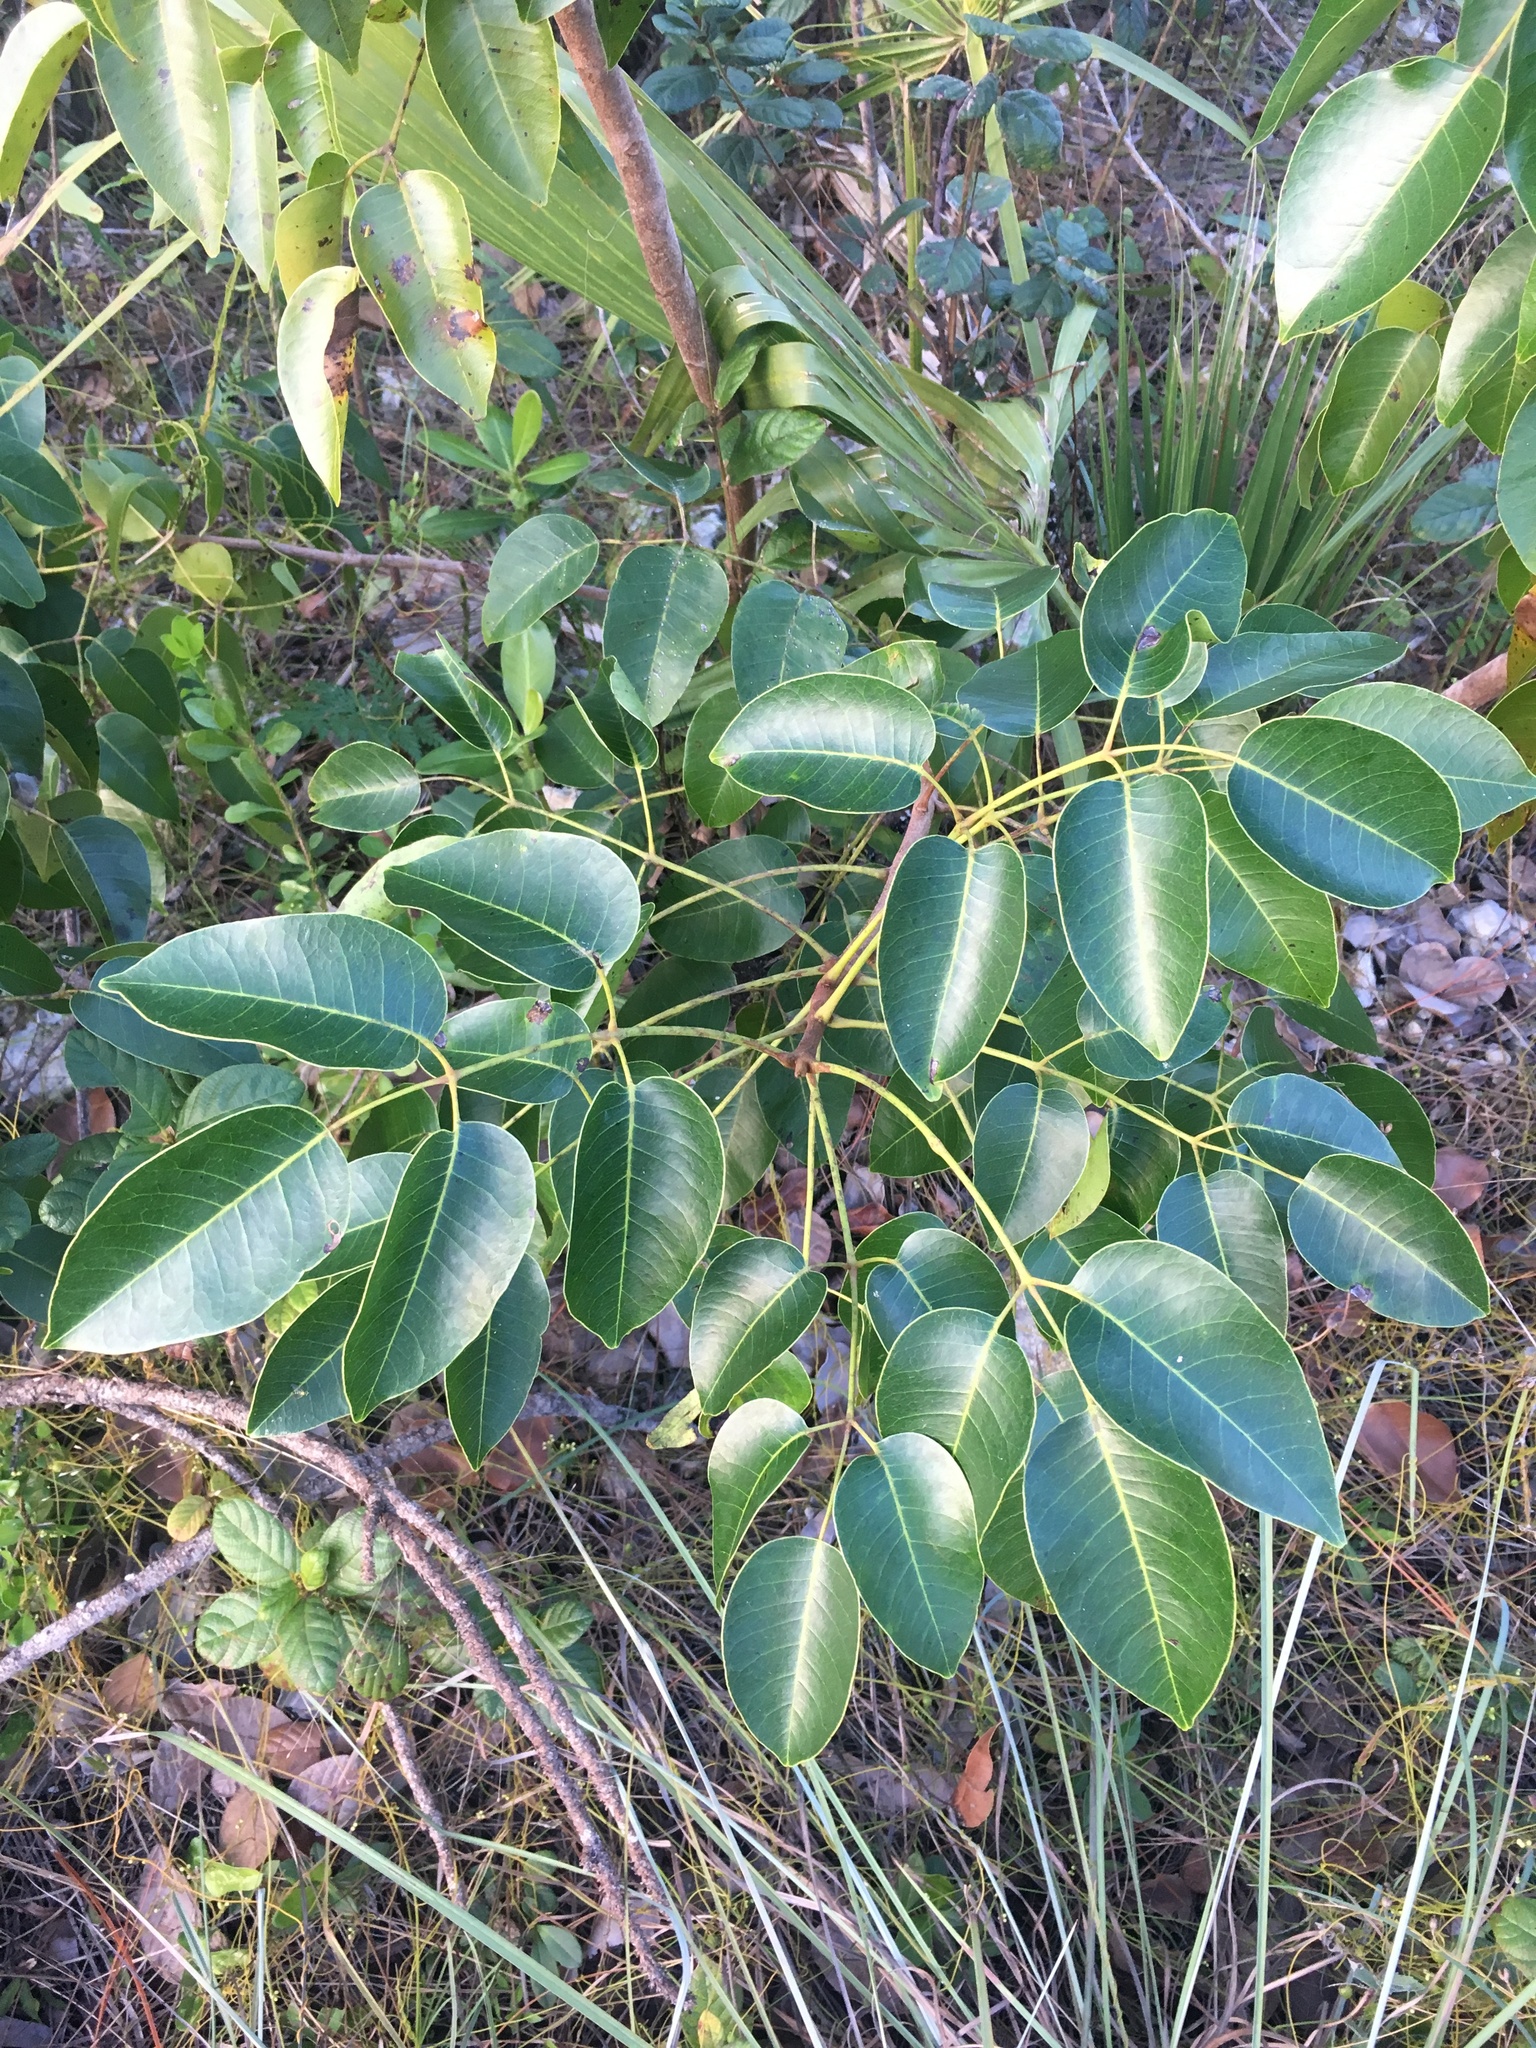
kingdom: Plantae
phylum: Tracheophyta
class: Magnoliopsida
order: Sapindales
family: Anacardiaceae
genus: Metopium
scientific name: Metopium toxiferum
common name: Florida poisontree
